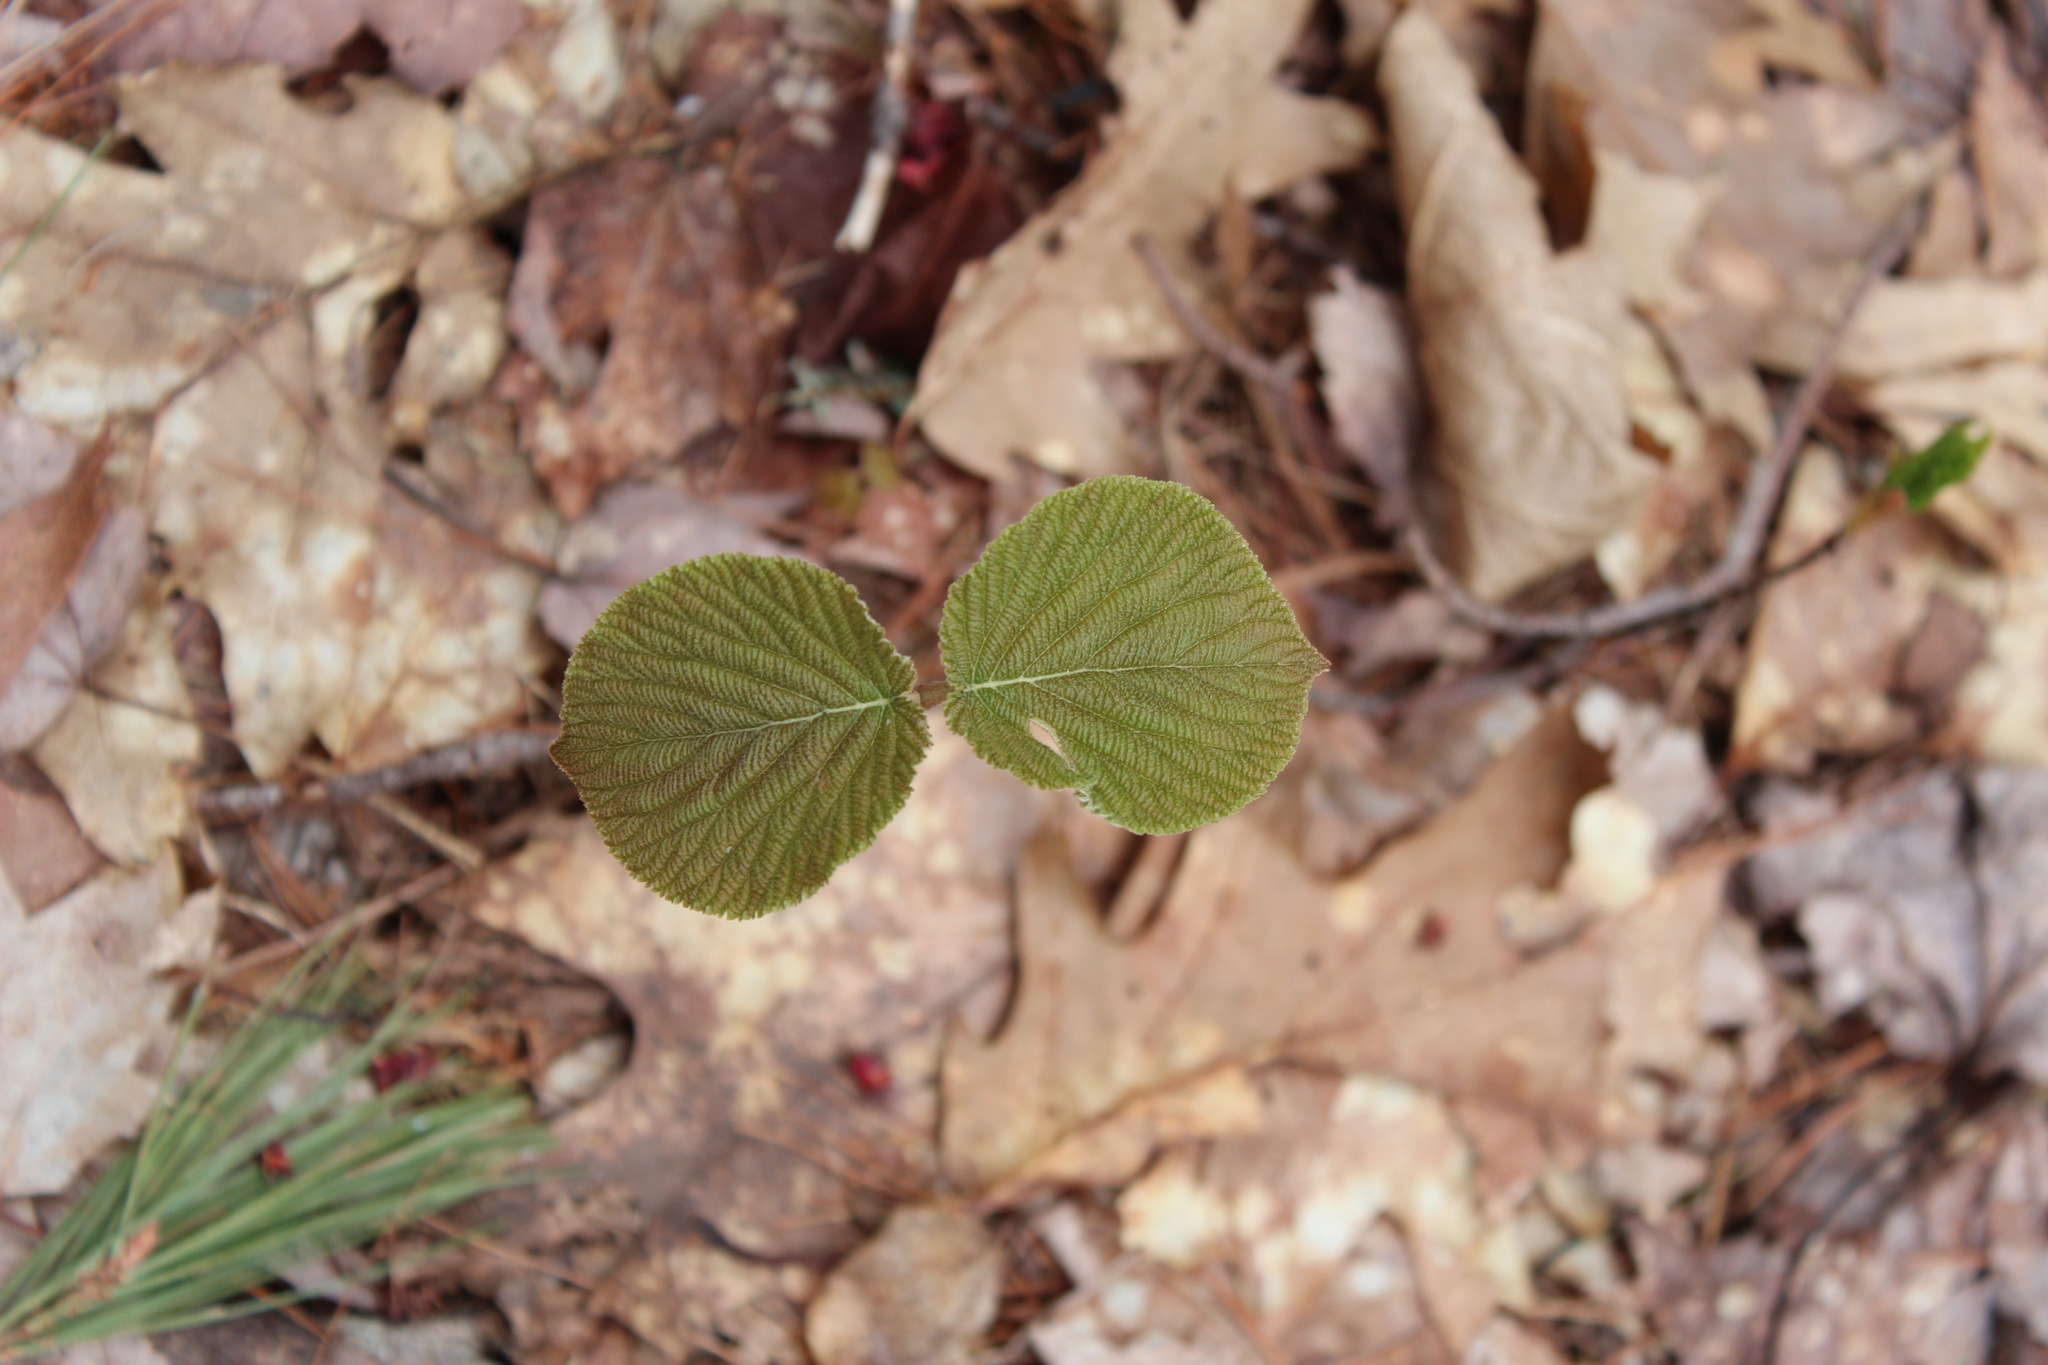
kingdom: Plantae
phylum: Tracheophyta
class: Magnoliopsida
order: Dipsacales
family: Viburnaceae
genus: Viburnum
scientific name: Viburnum lantanoides
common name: Hobblebush
